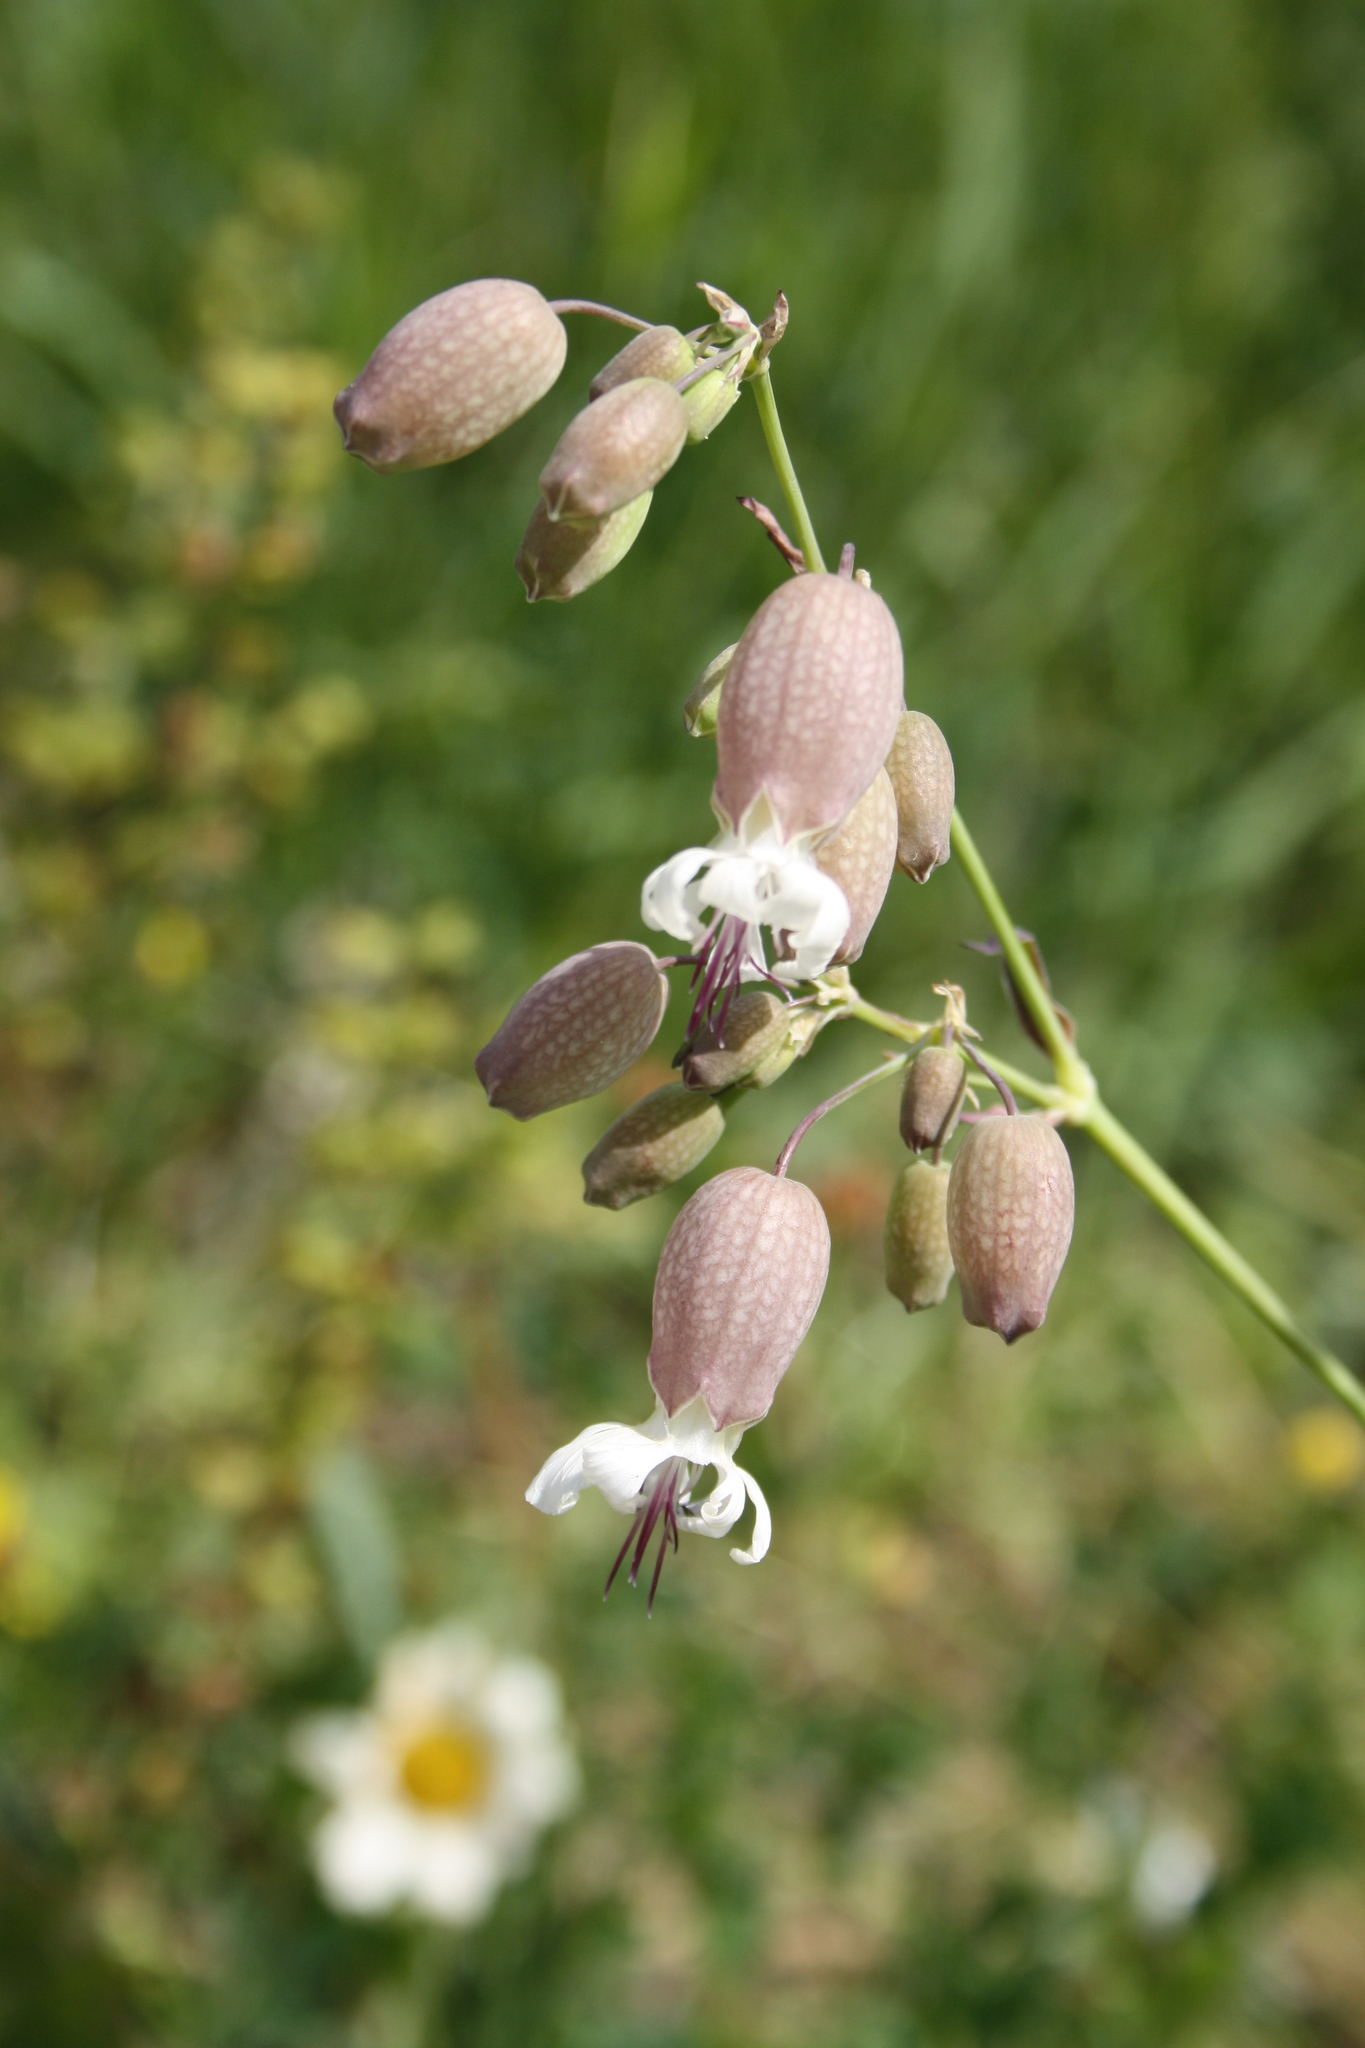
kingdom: Plantae
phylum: Tracheophyta
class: Magnoliopsida
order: Caryophyllales
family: Caryophyllaceae
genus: Silene
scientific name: Silene vulgaris
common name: Bladder campion
